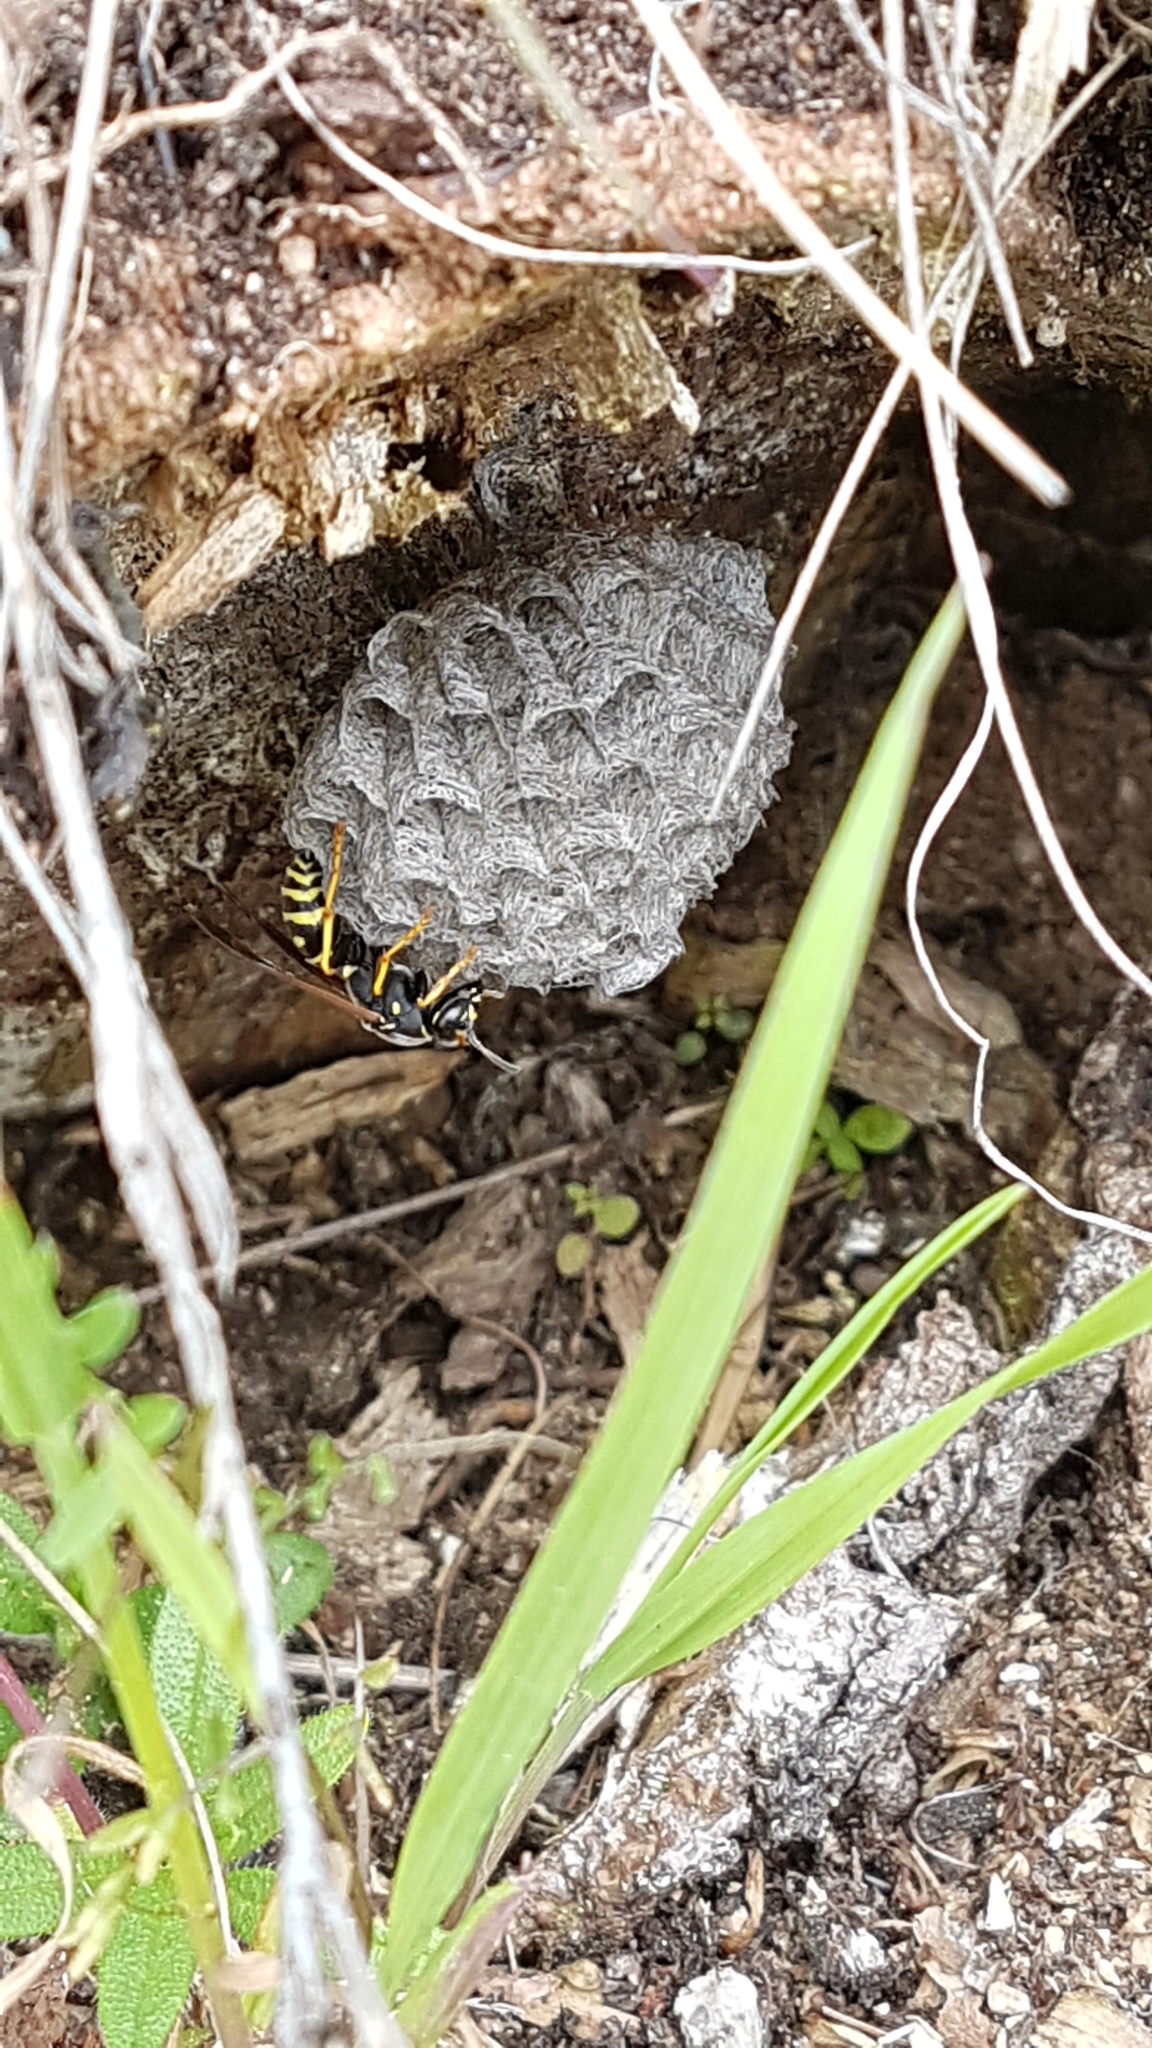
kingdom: Animalia
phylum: Arthropoda
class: Insecta
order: Hymenoptera
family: Eumenidae
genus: Polistes
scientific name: Polistes biglumis
